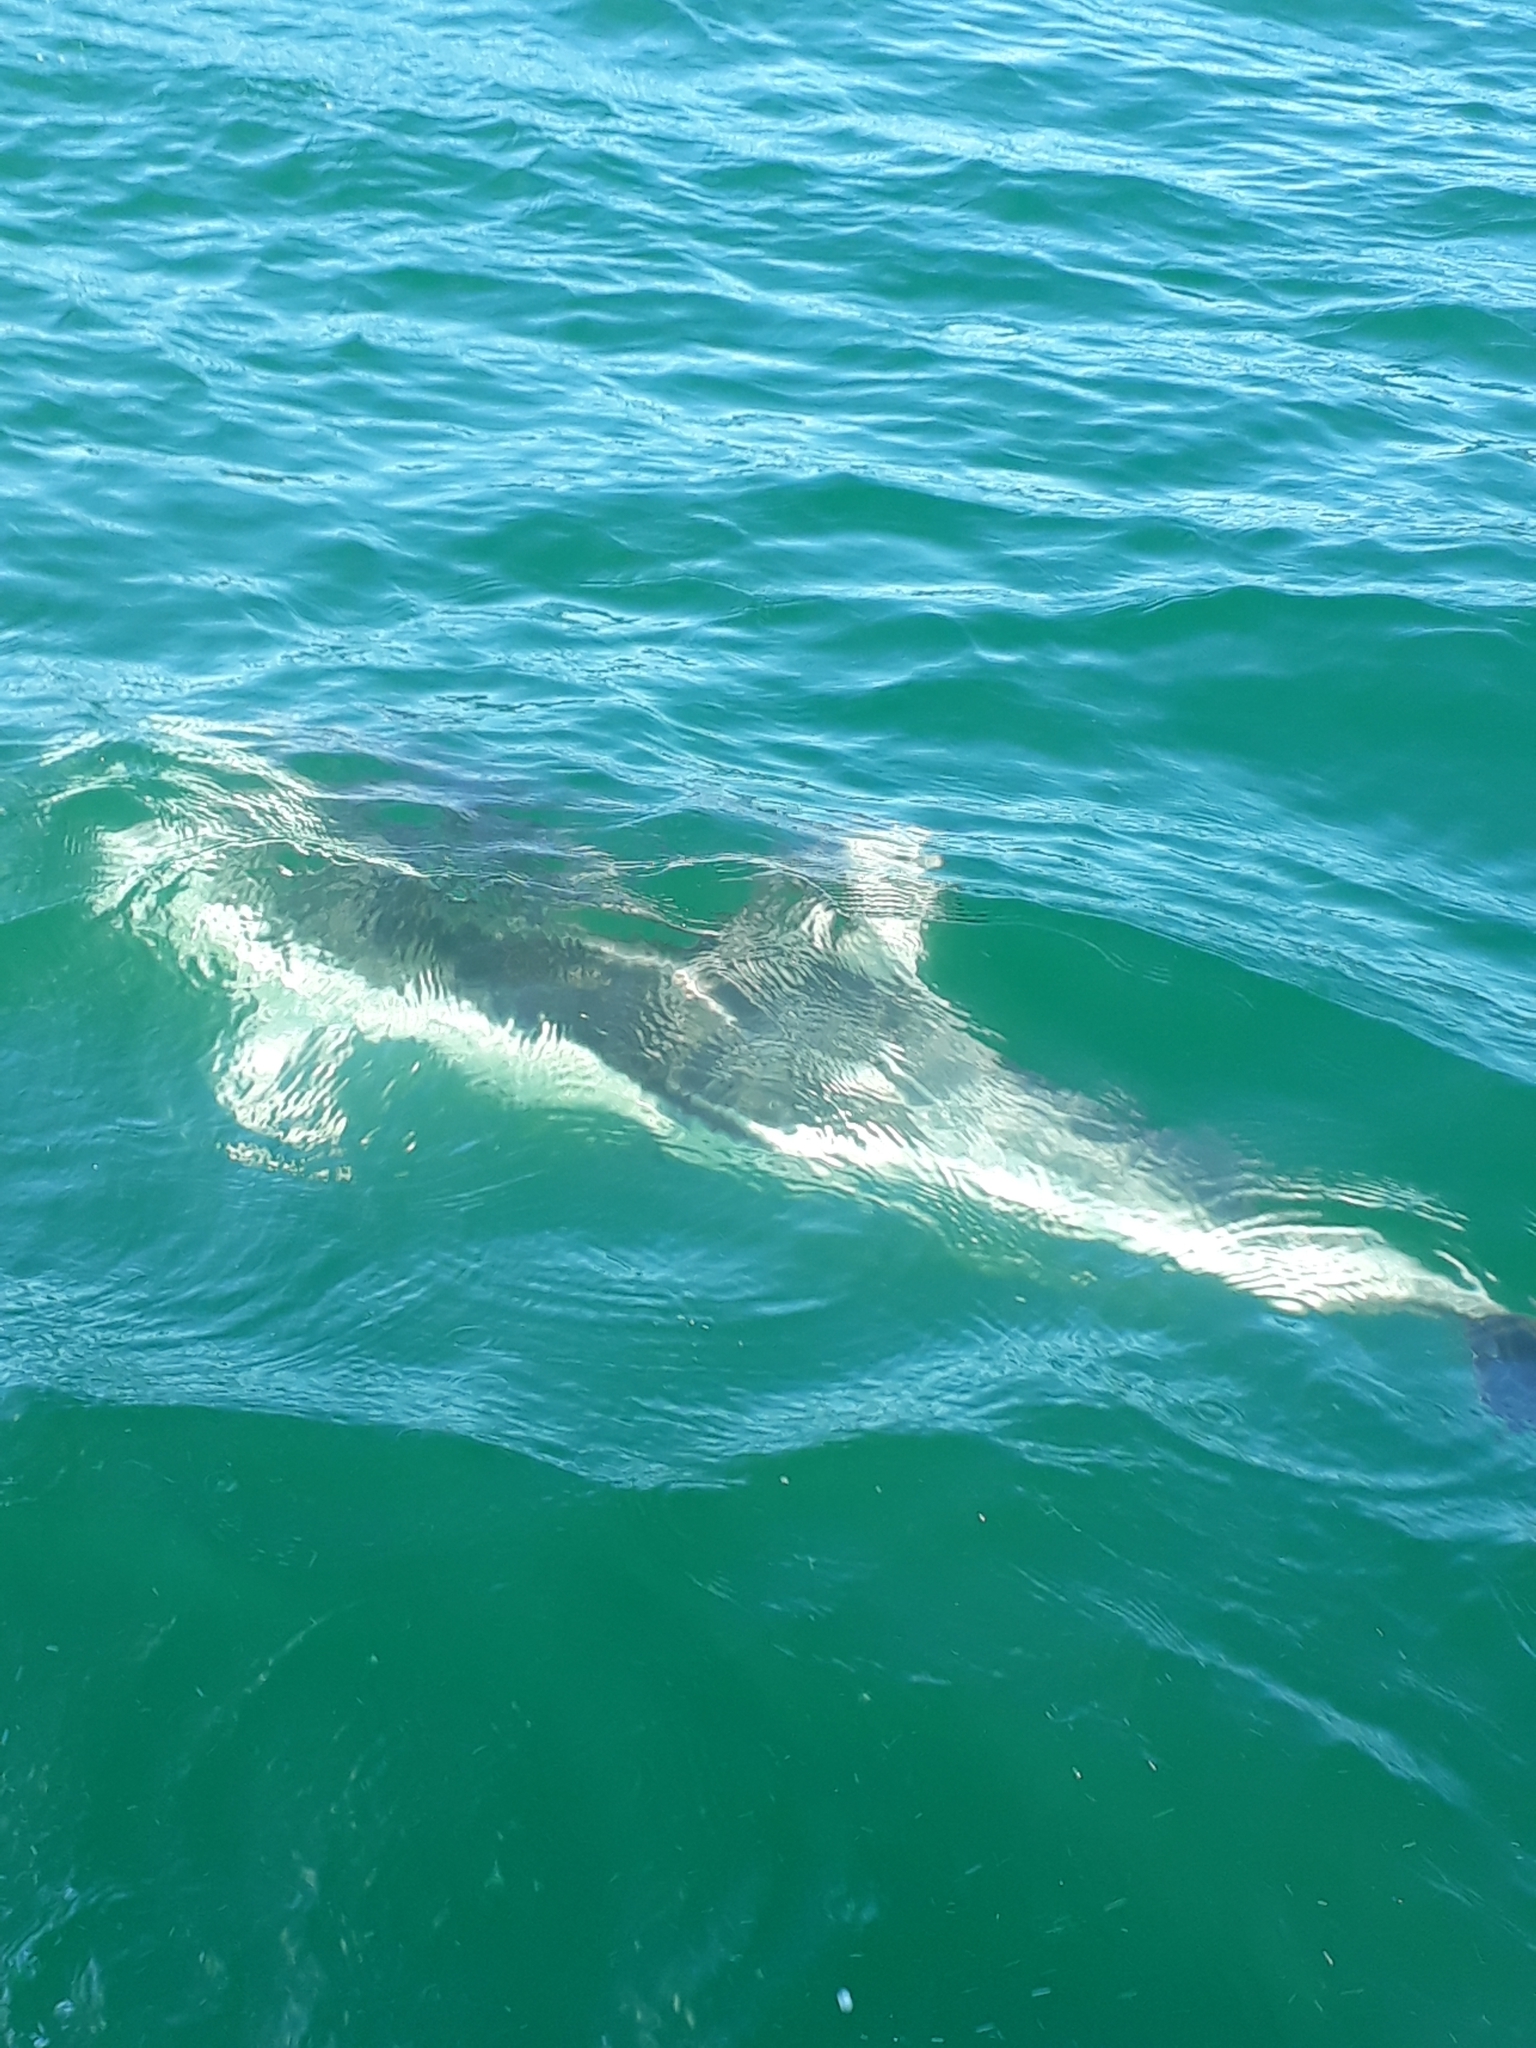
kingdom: Animalia
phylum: Chordata
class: Mammalia
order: Cetacea
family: Delphinidae
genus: Lagenorhynchus
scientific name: Lagenorhynchus obscurus
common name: Dusky dolphin
